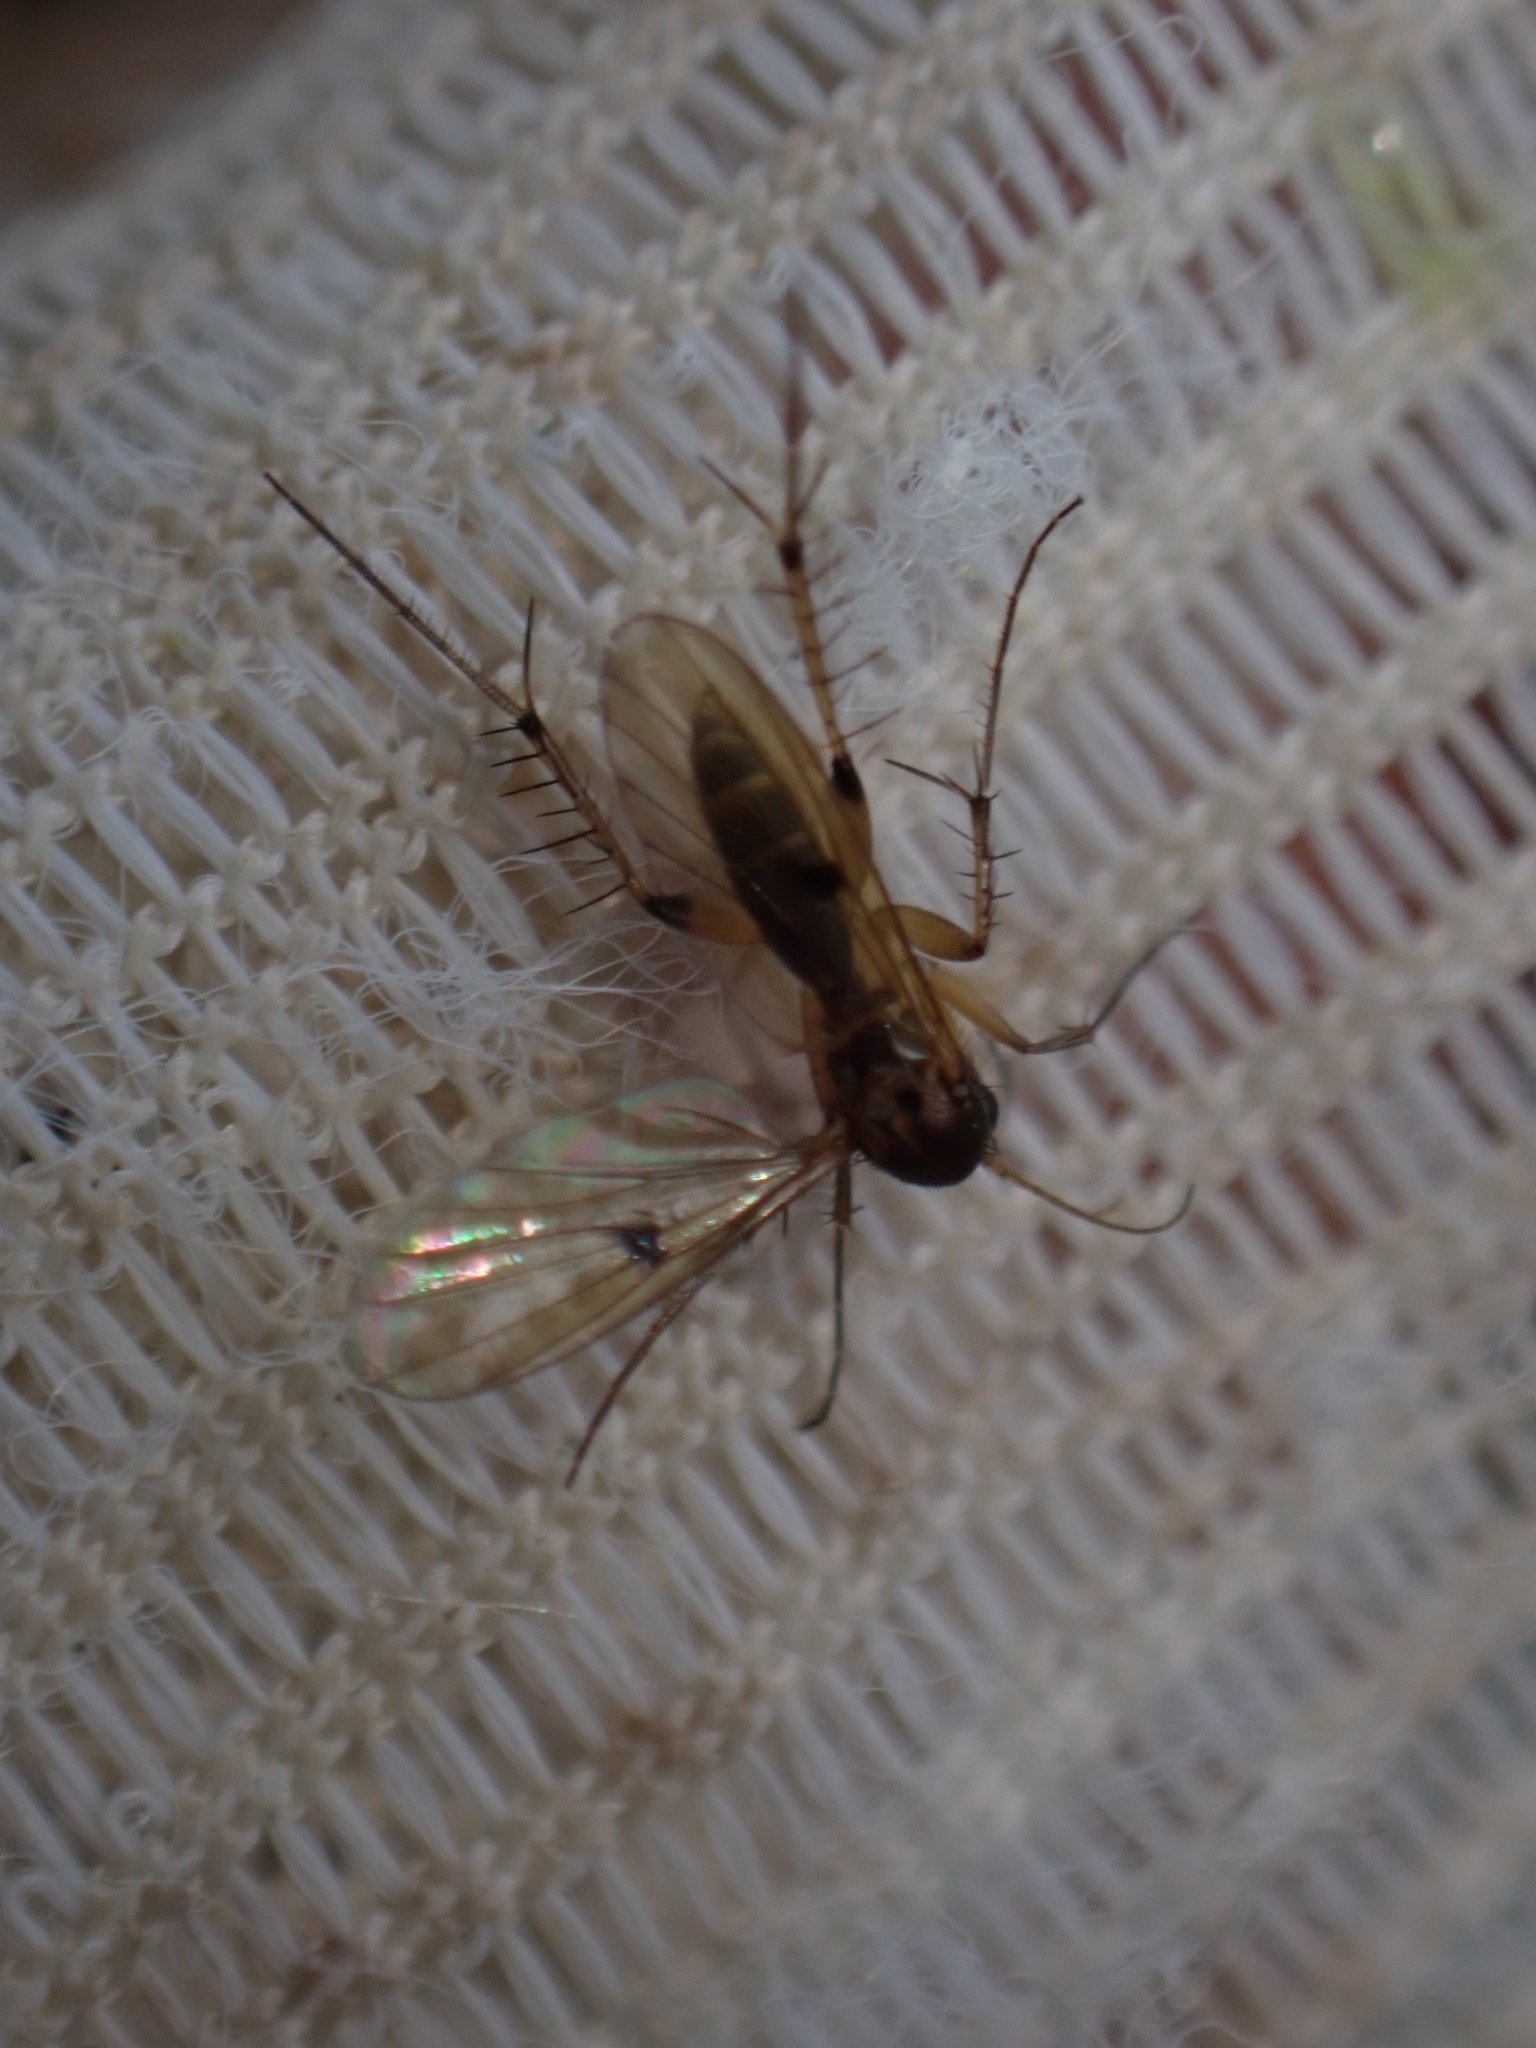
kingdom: Animalia
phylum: Arthropoda
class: Insecta
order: Diptera
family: Mycetophilidae
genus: Mycetophila
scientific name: Mycetophila colorata
